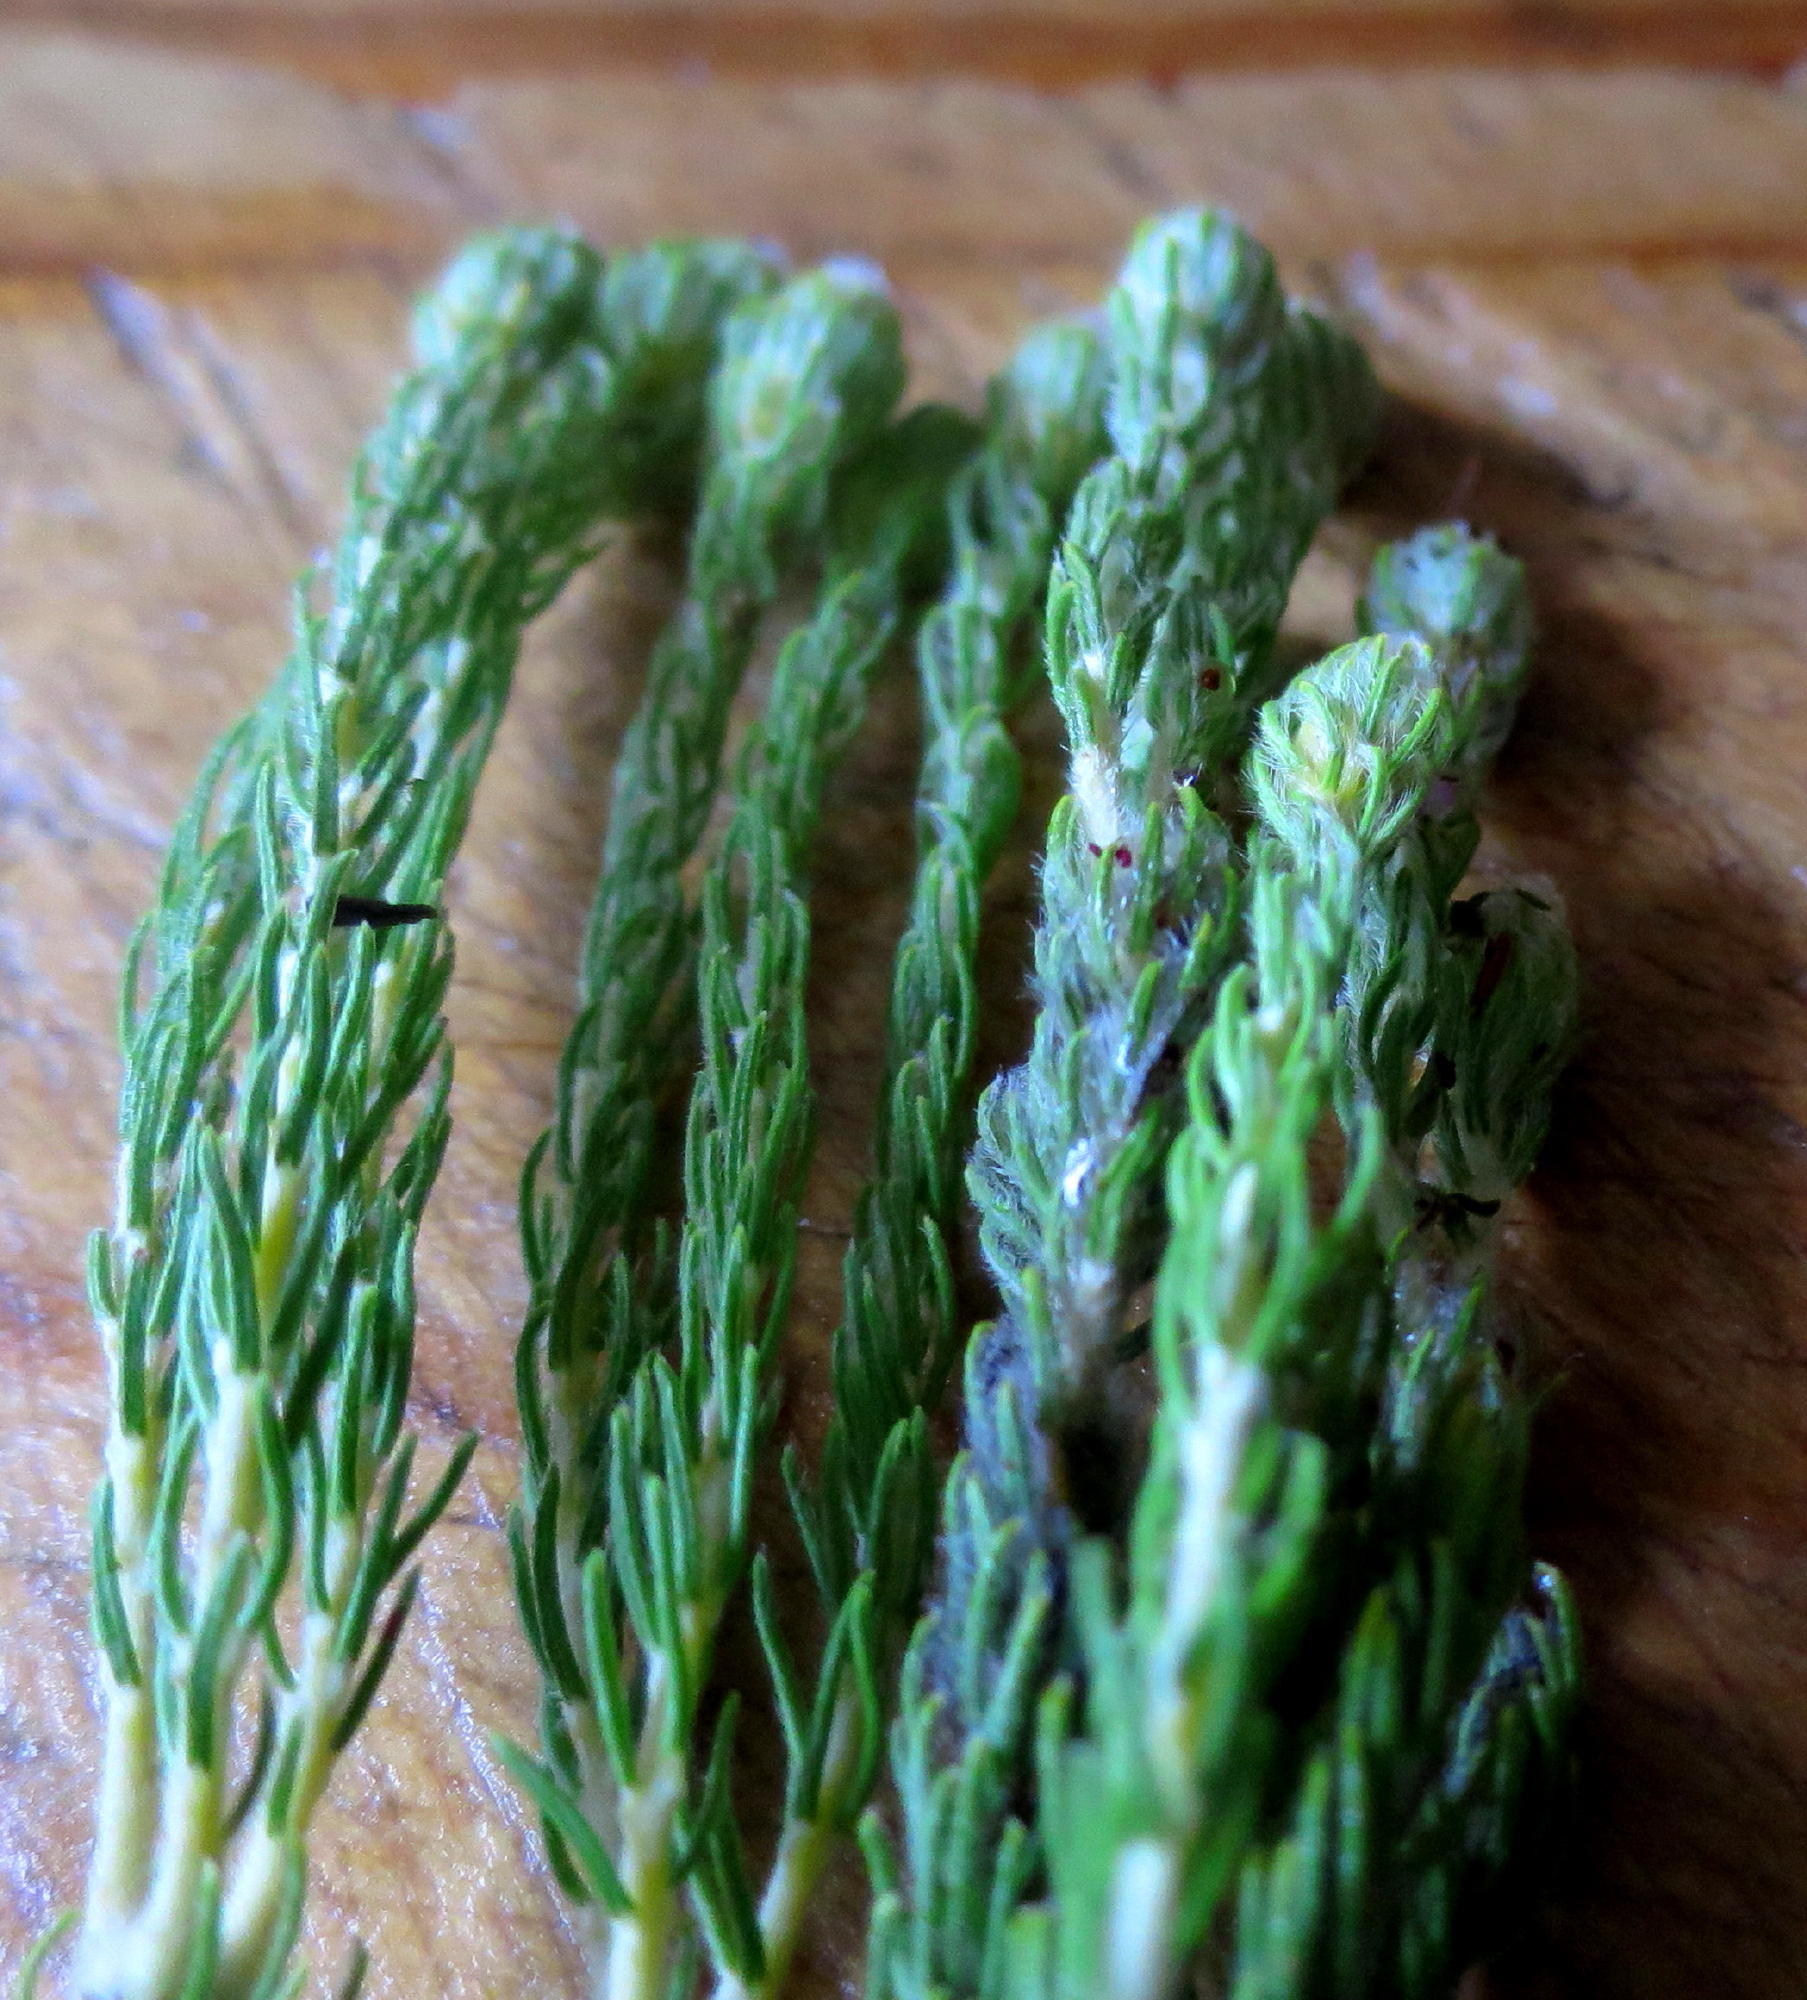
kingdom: Plantae
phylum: Tracheophyta
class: Magnoliopsida
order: Rosales
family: Rhamnaceae
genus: Phylica
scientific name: Phylica nigromontana
